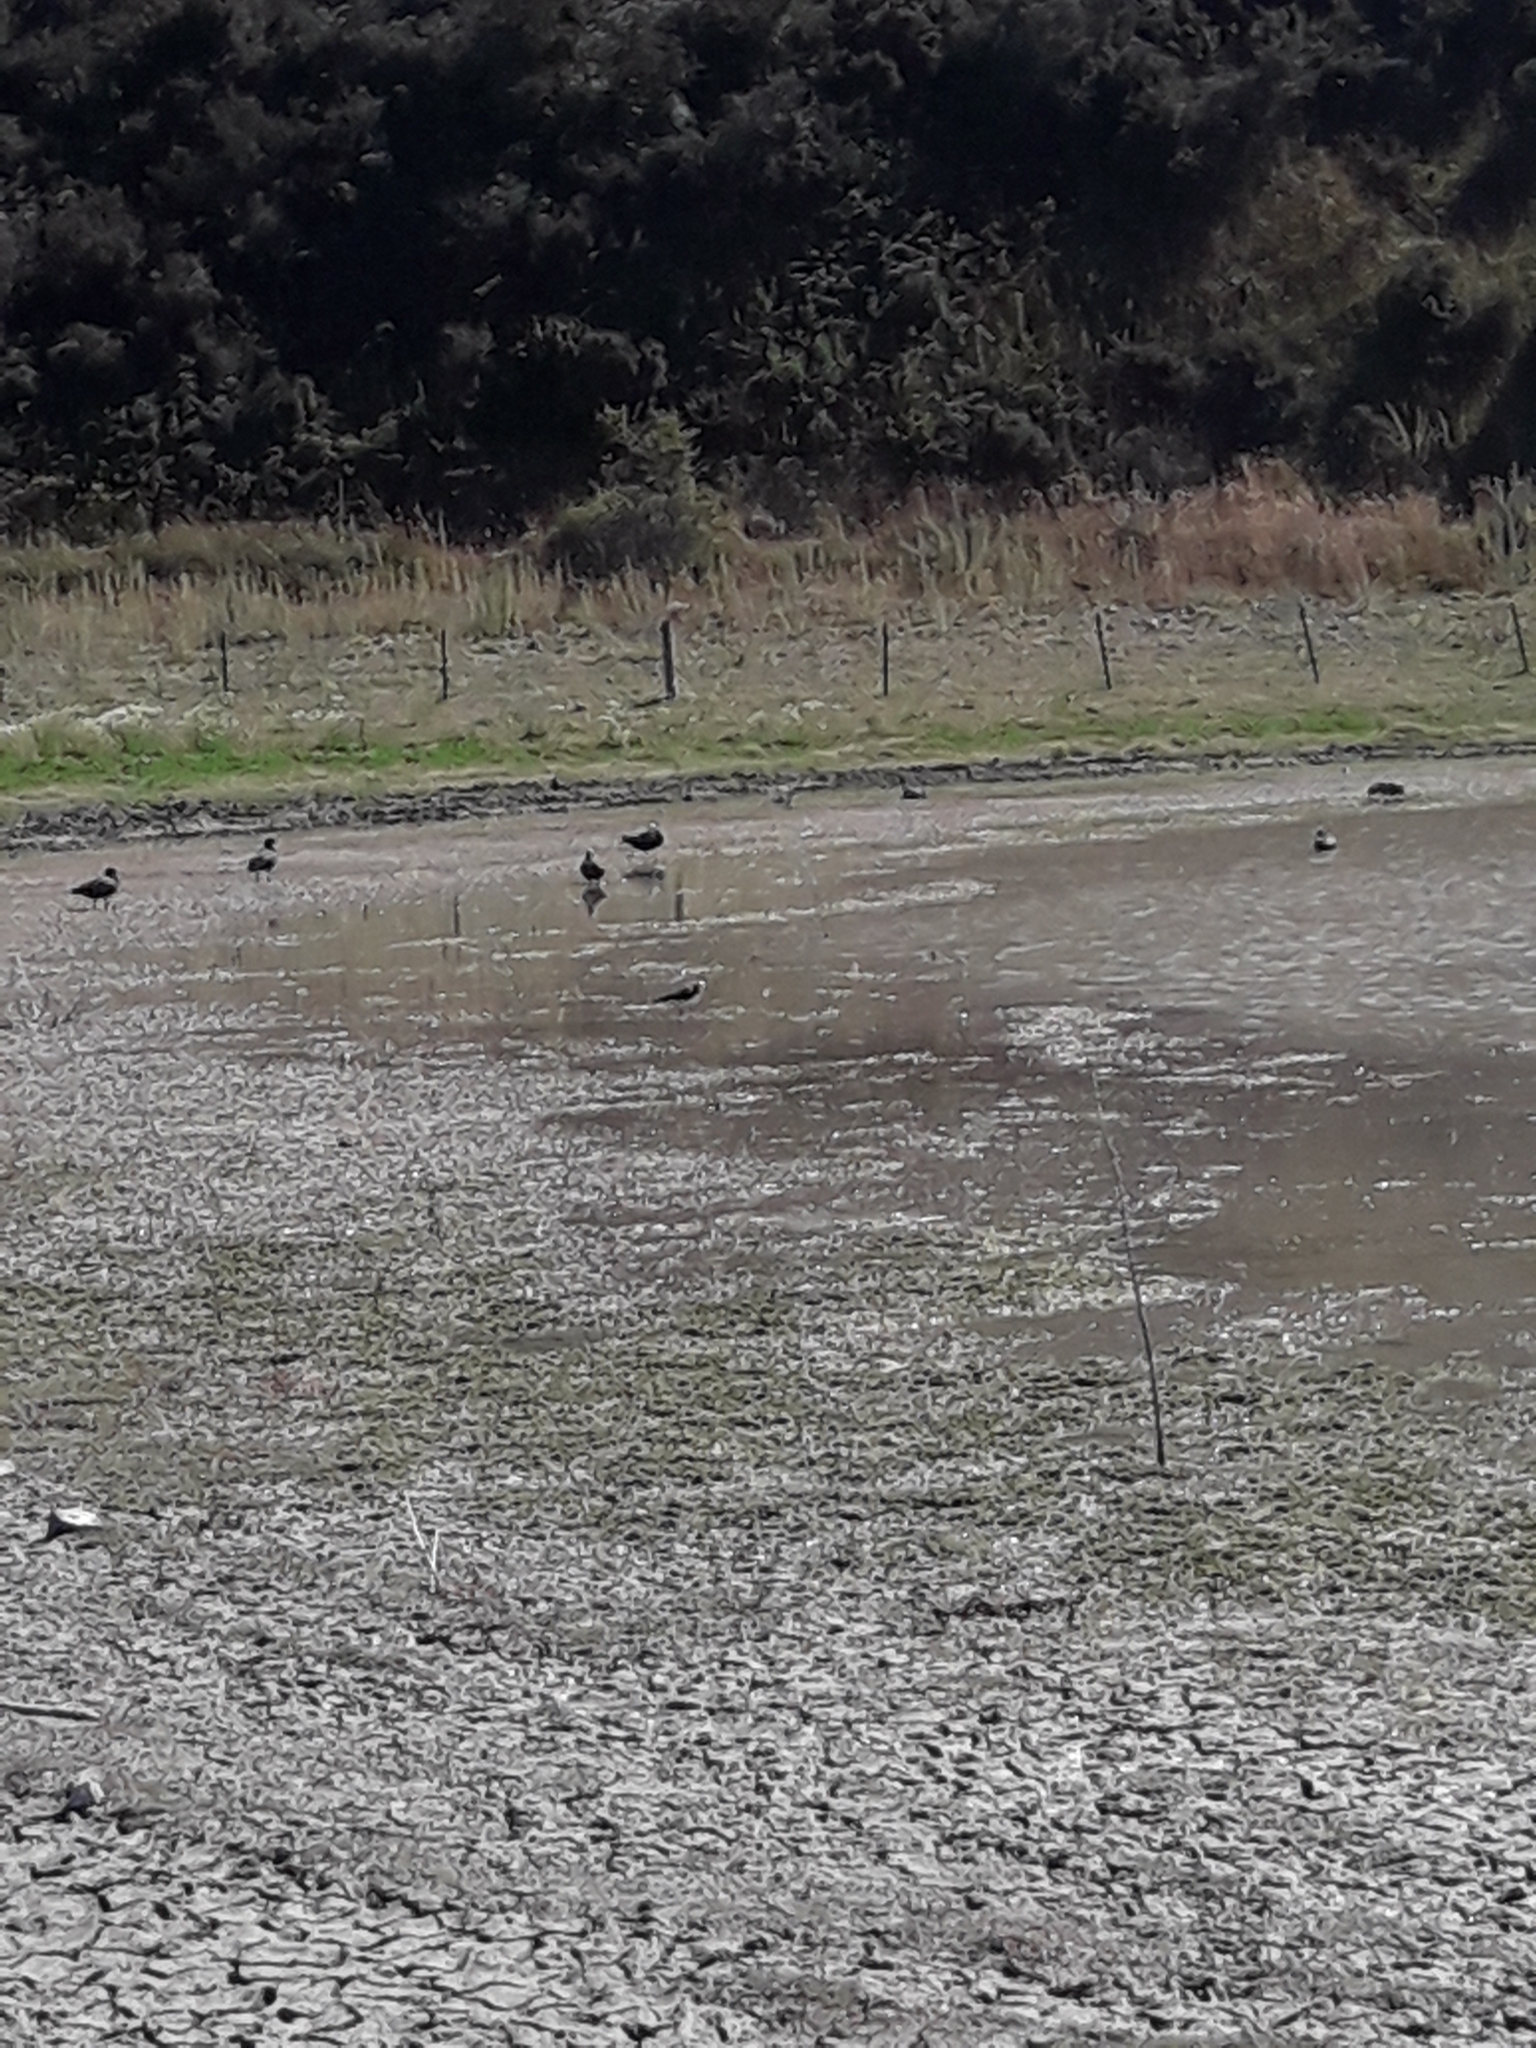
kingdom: Animalia
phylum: Chordata
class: Aves
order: Charadriiformes
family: Recurvirostridae
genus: Himantopus
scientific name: Himantopus leucocephalus
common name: White-headed stilt
